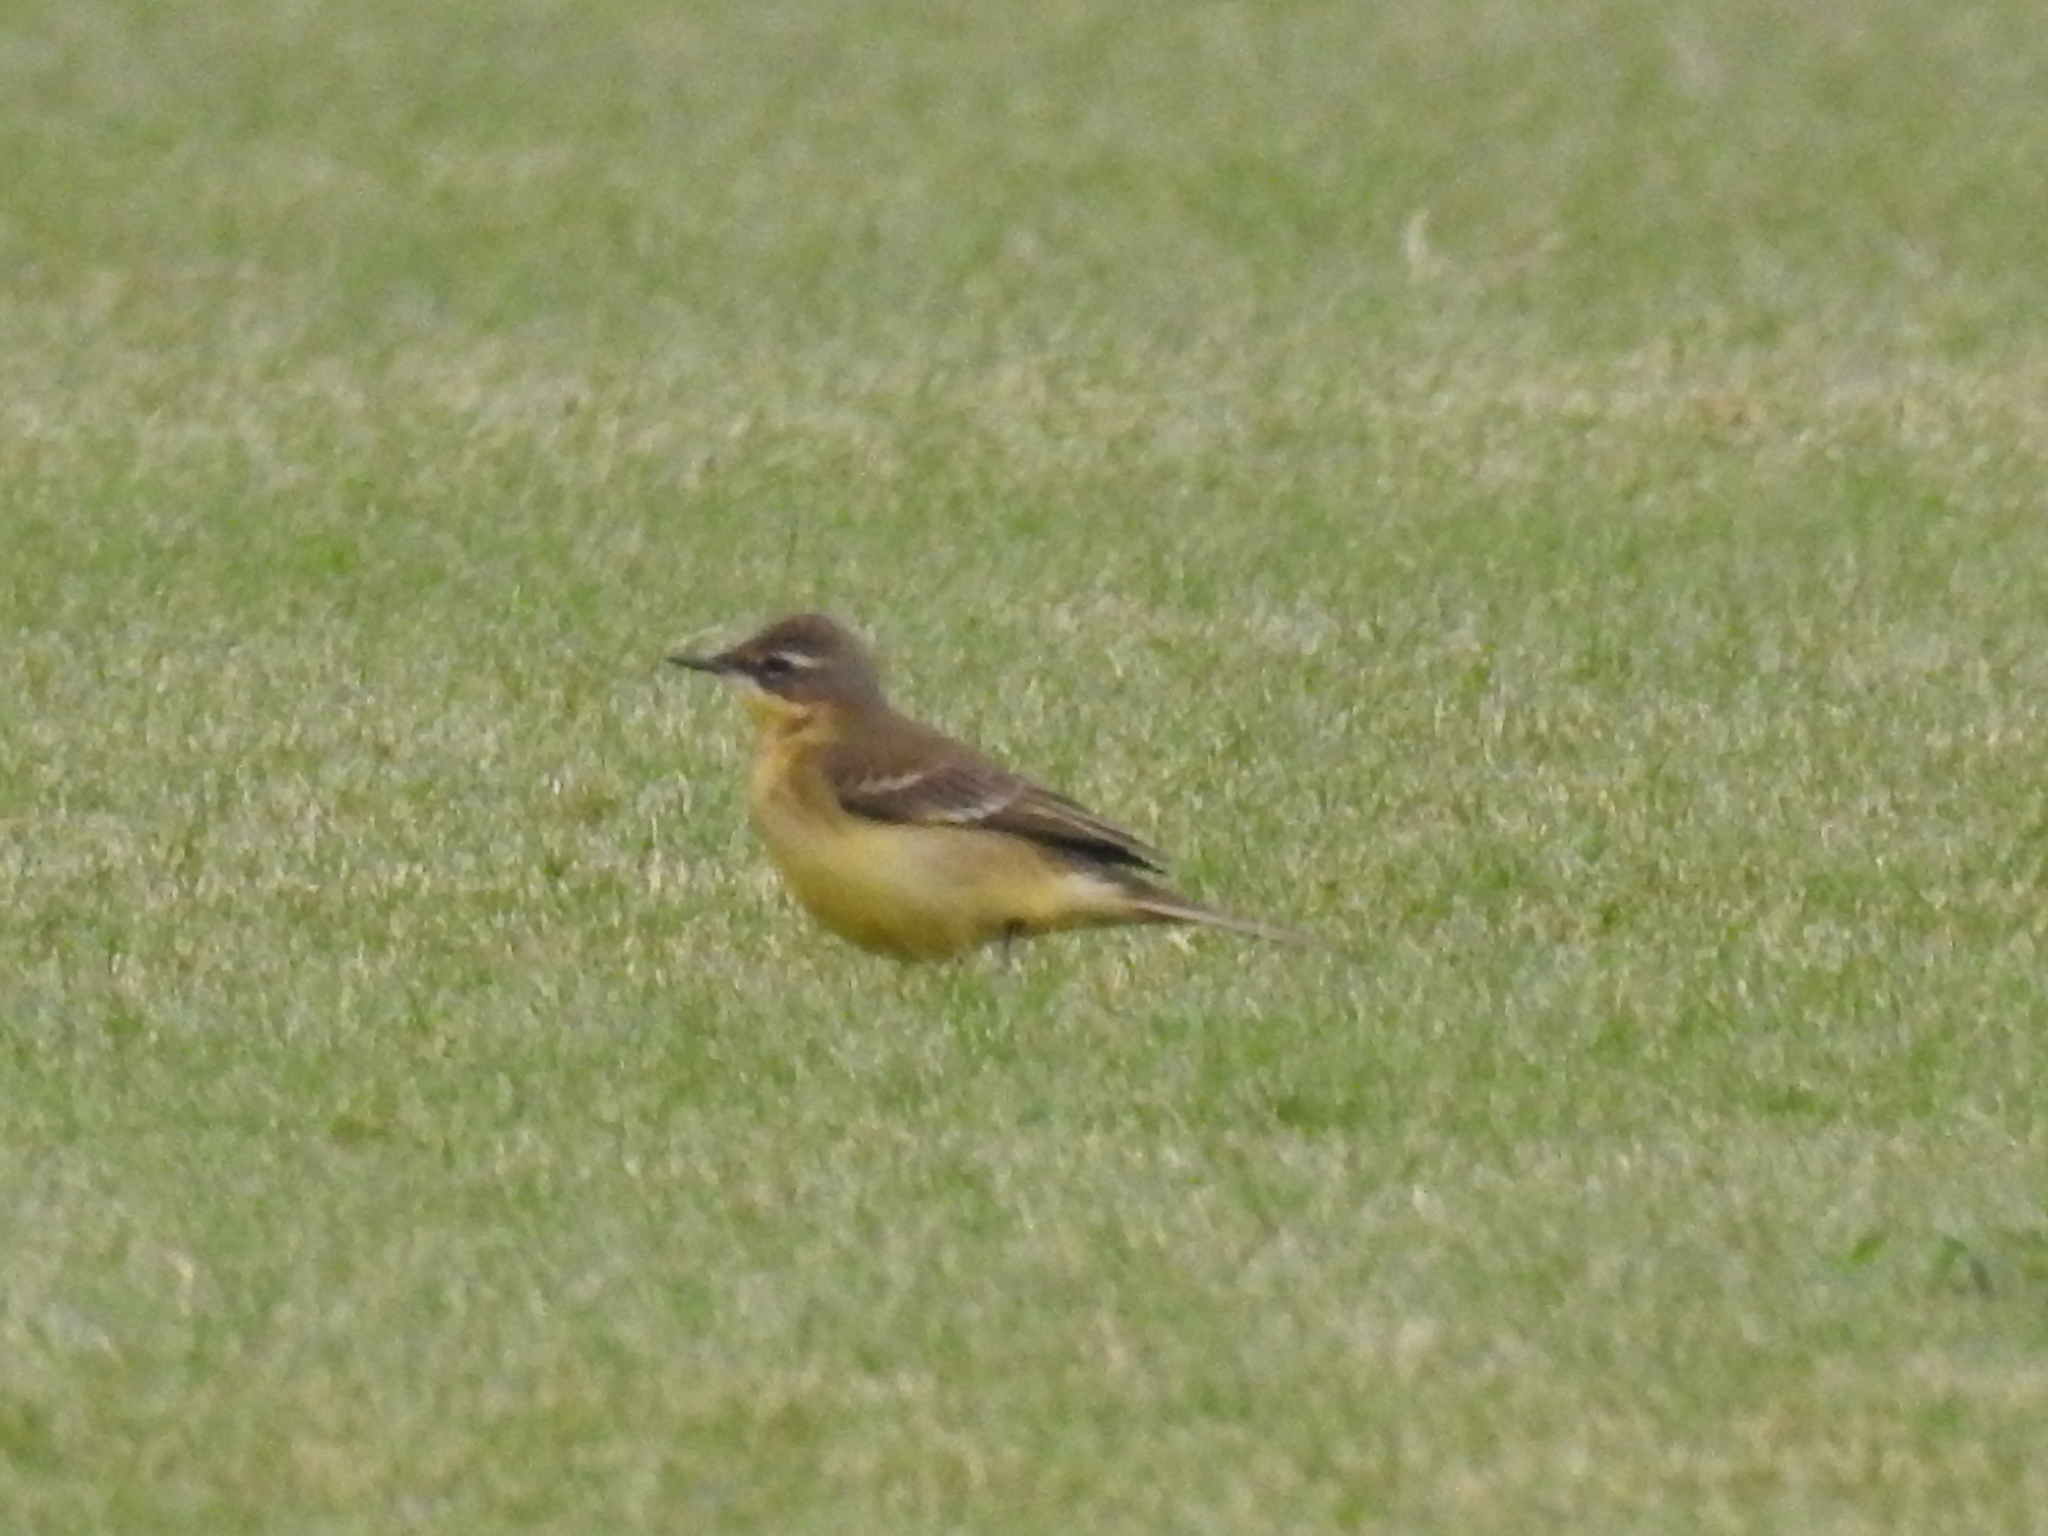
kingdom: Animalia
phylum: Chordata
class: Aves
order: Passeriformes
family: Motacillidae
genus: Motacilla
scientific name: Motacilla tschutschensis
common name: Eastern yellow wagtail
